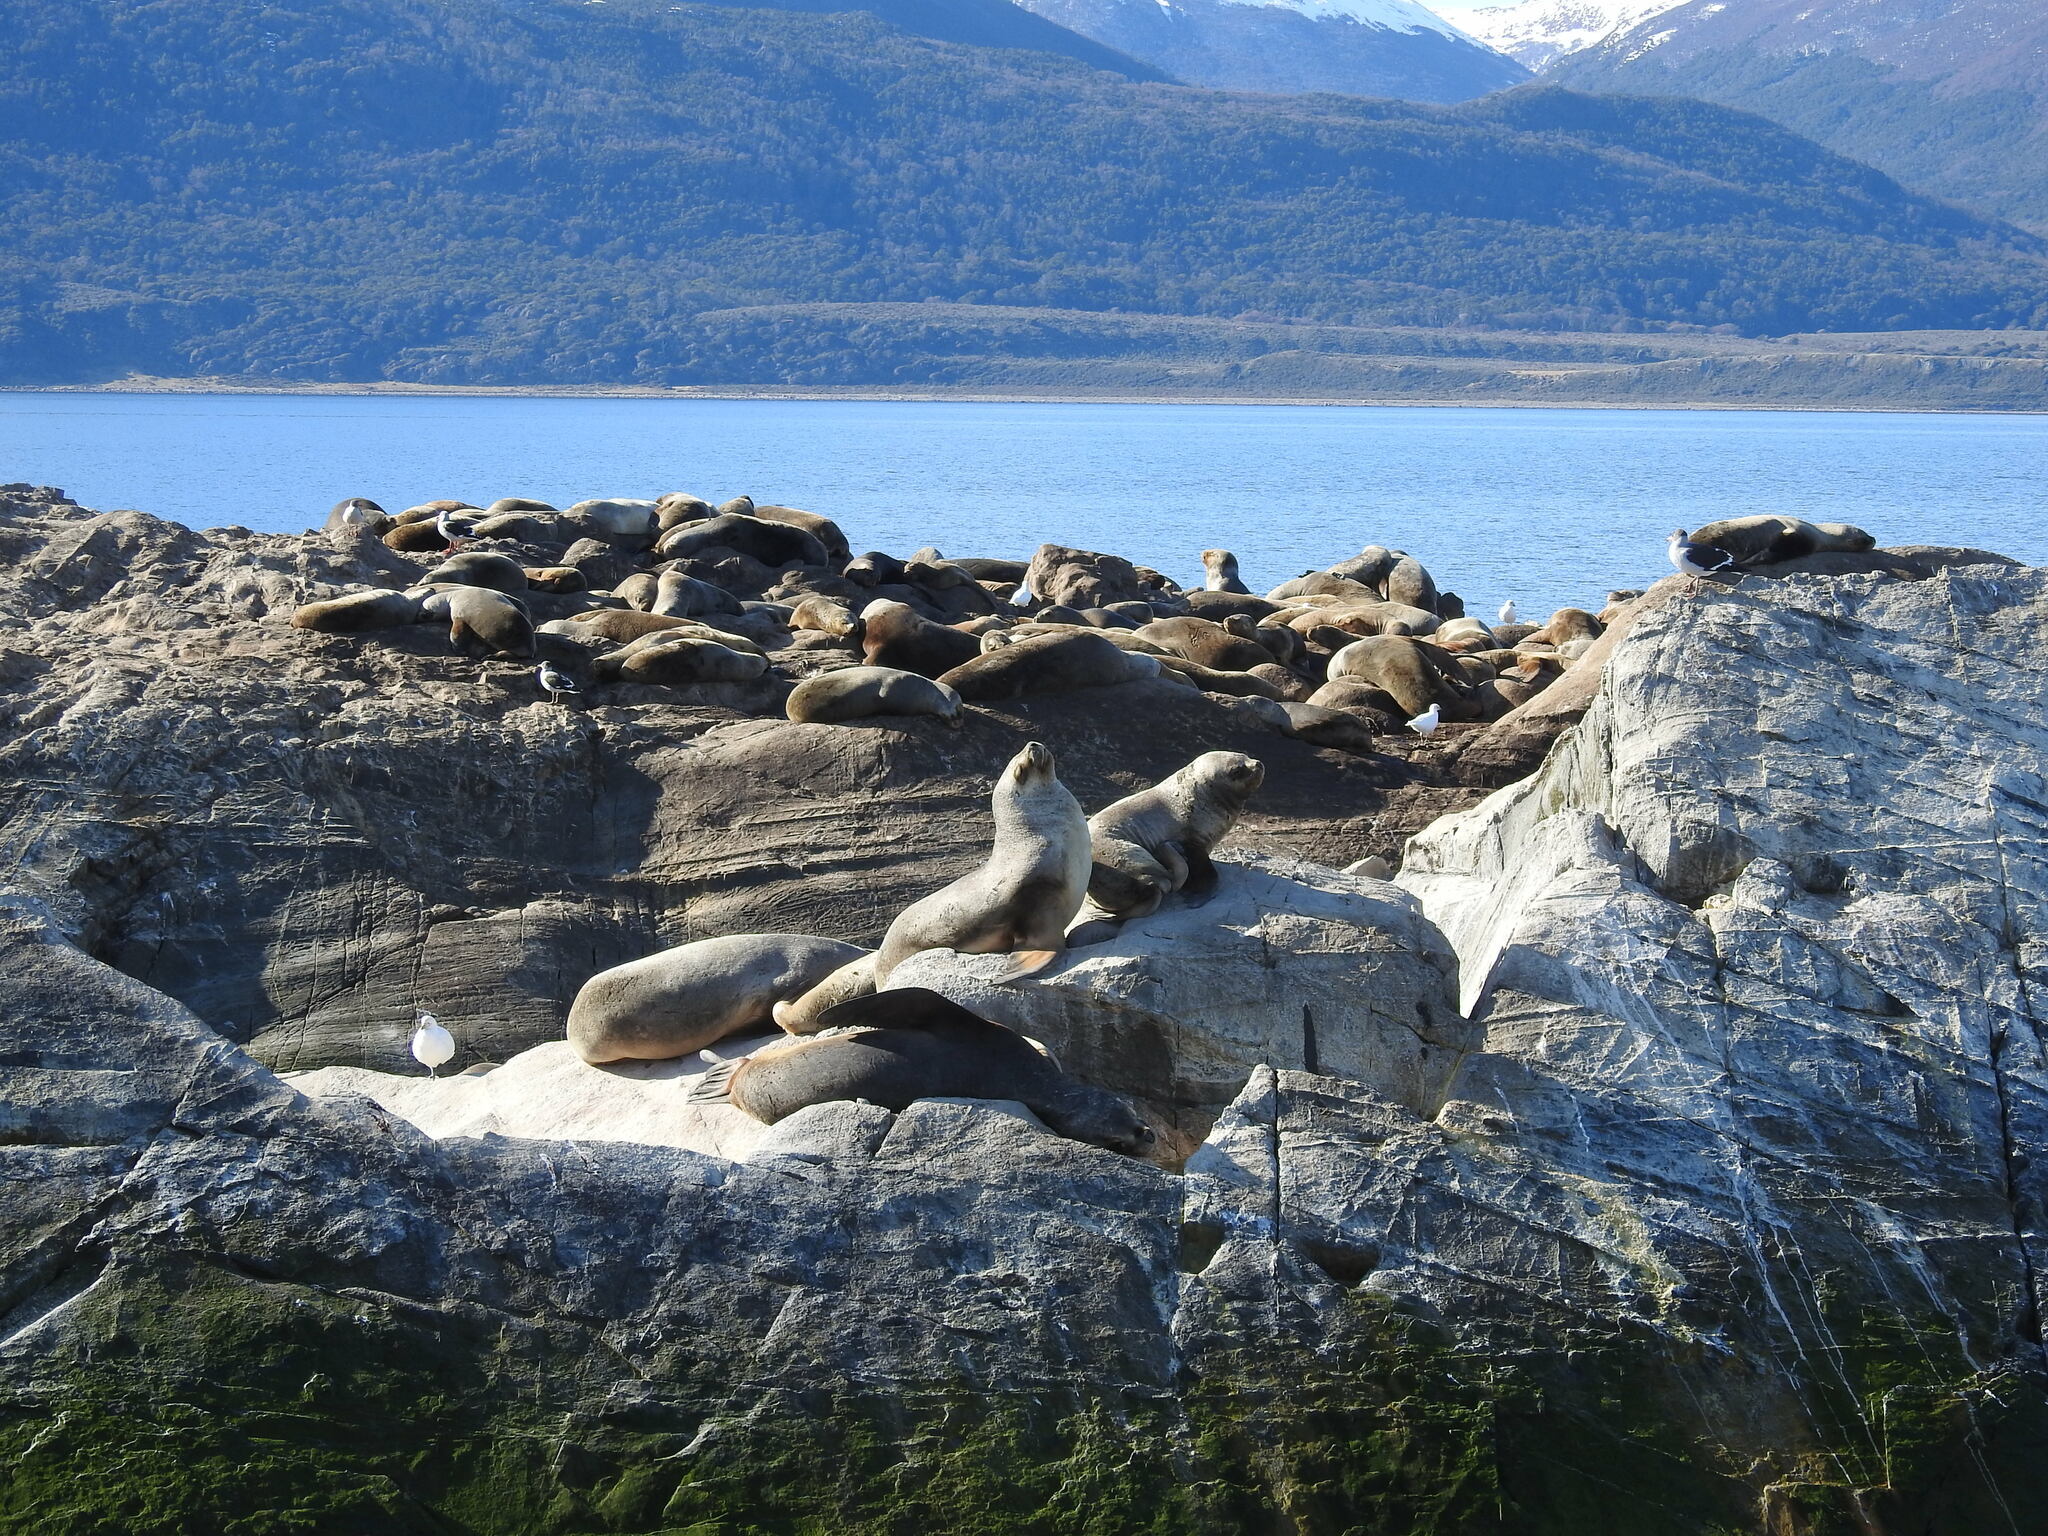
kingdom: Animalia
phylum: Chordata
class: Mammalia
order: Carnivora
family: Otariidae
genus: Otaria
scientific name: Otaria byronia
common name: South american sea lion
